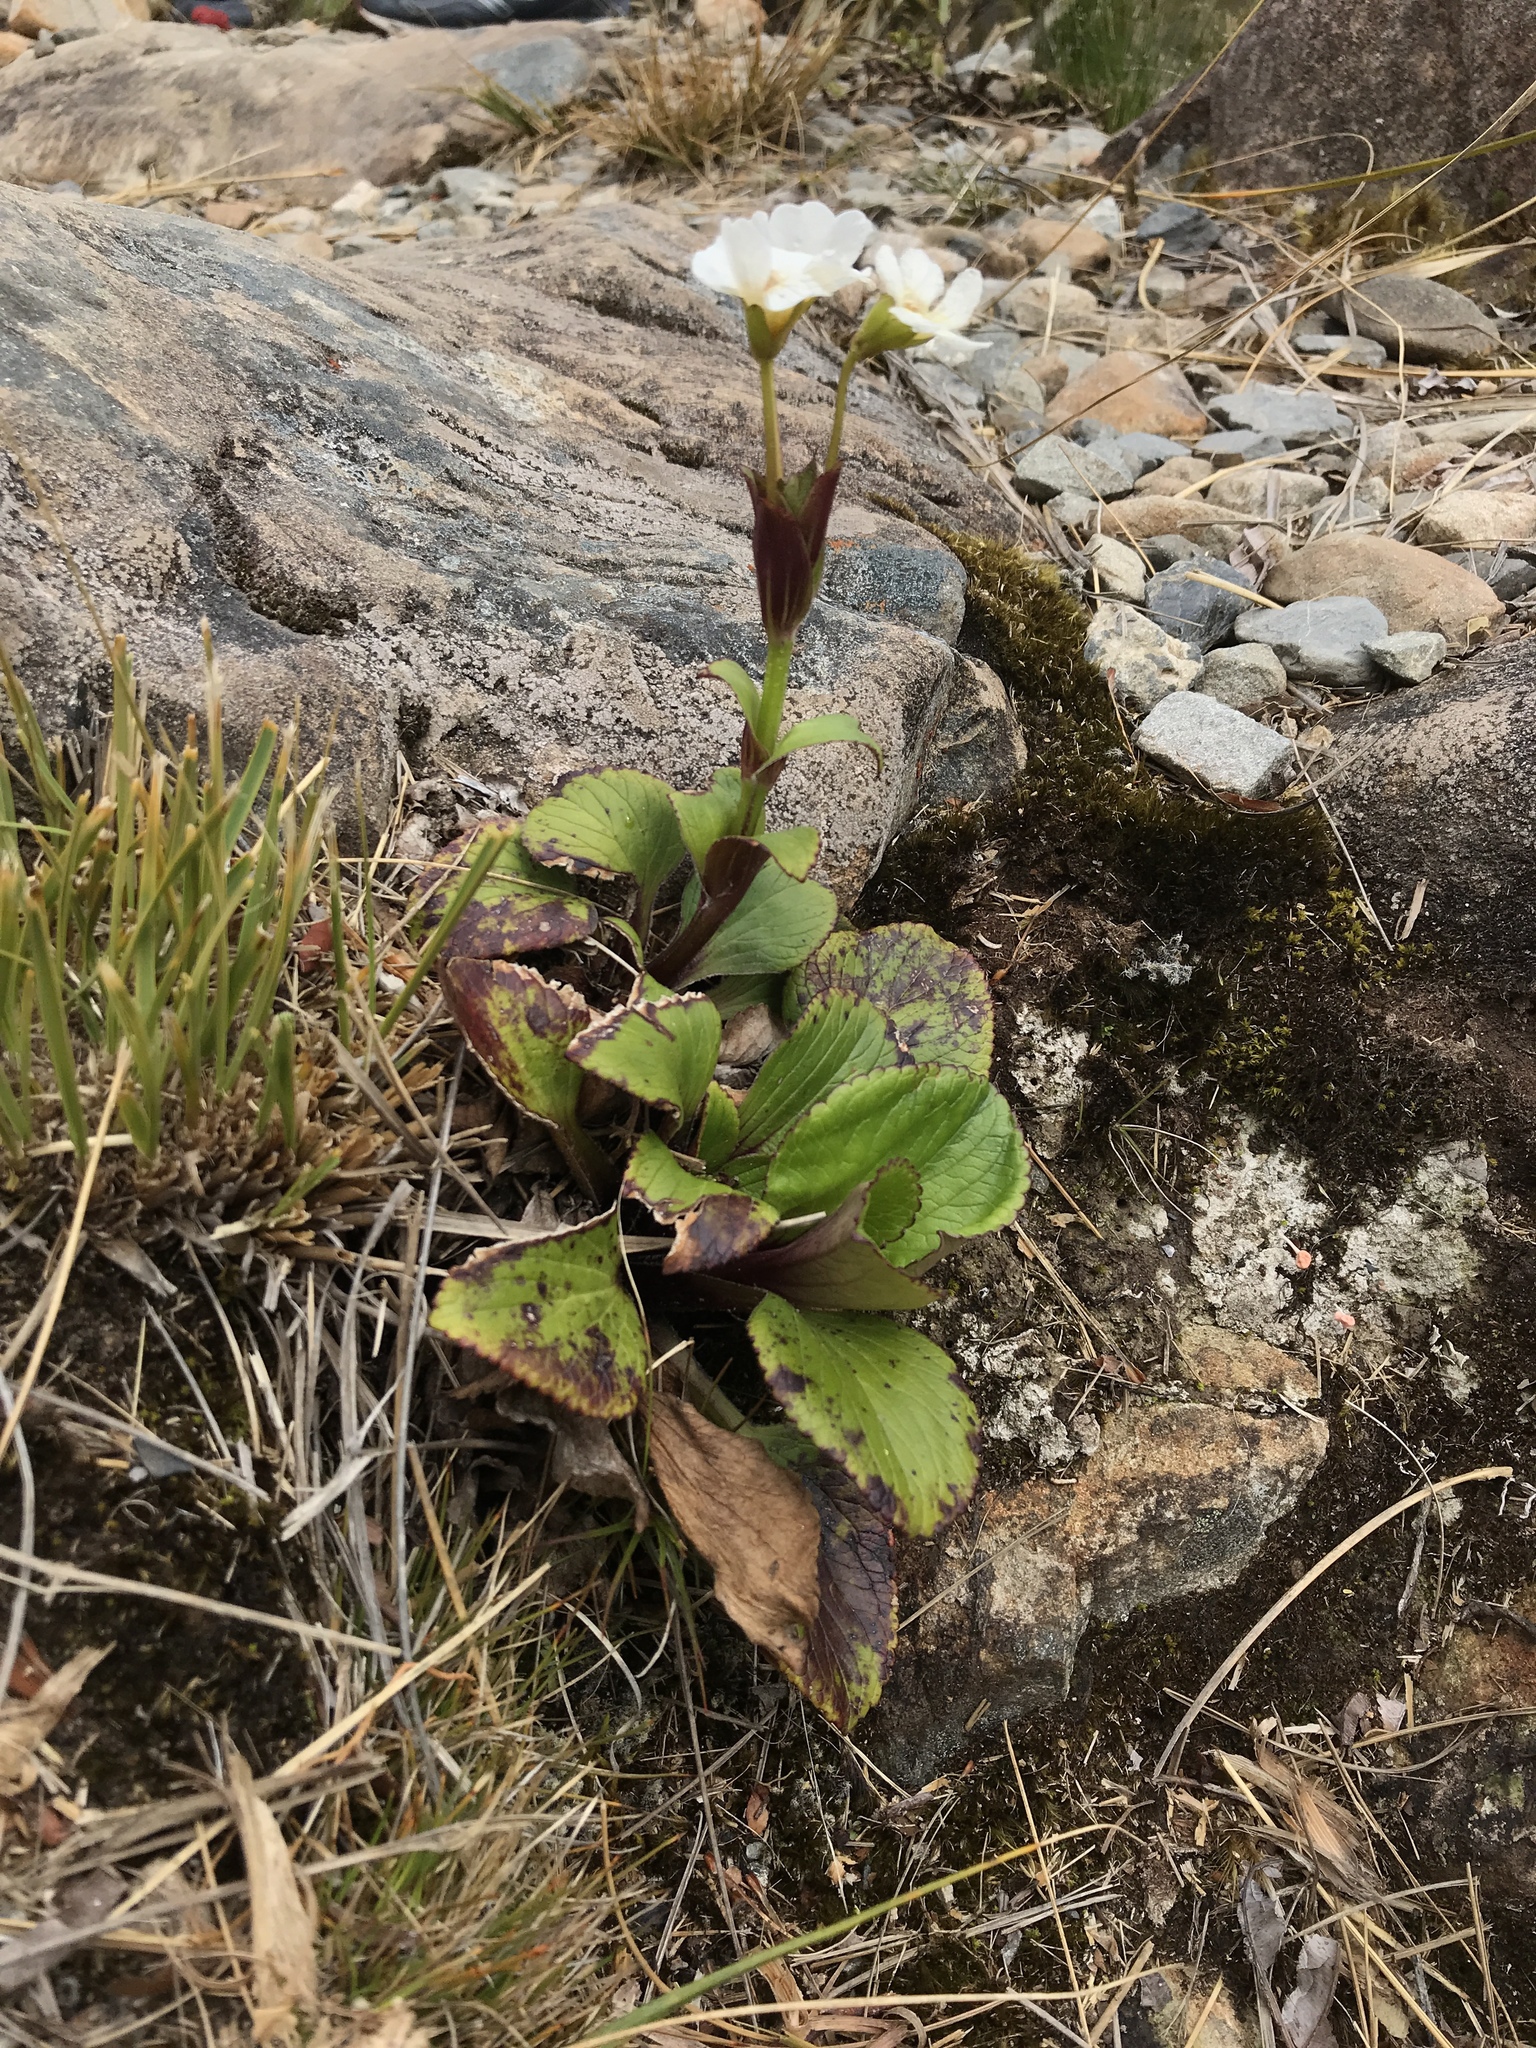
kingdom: Plantae
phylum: Tracheophyta
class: Magnoliopsida
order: Lamiales
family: Plantaginaceae
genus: Ourisia
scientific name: Ourisia calycina
